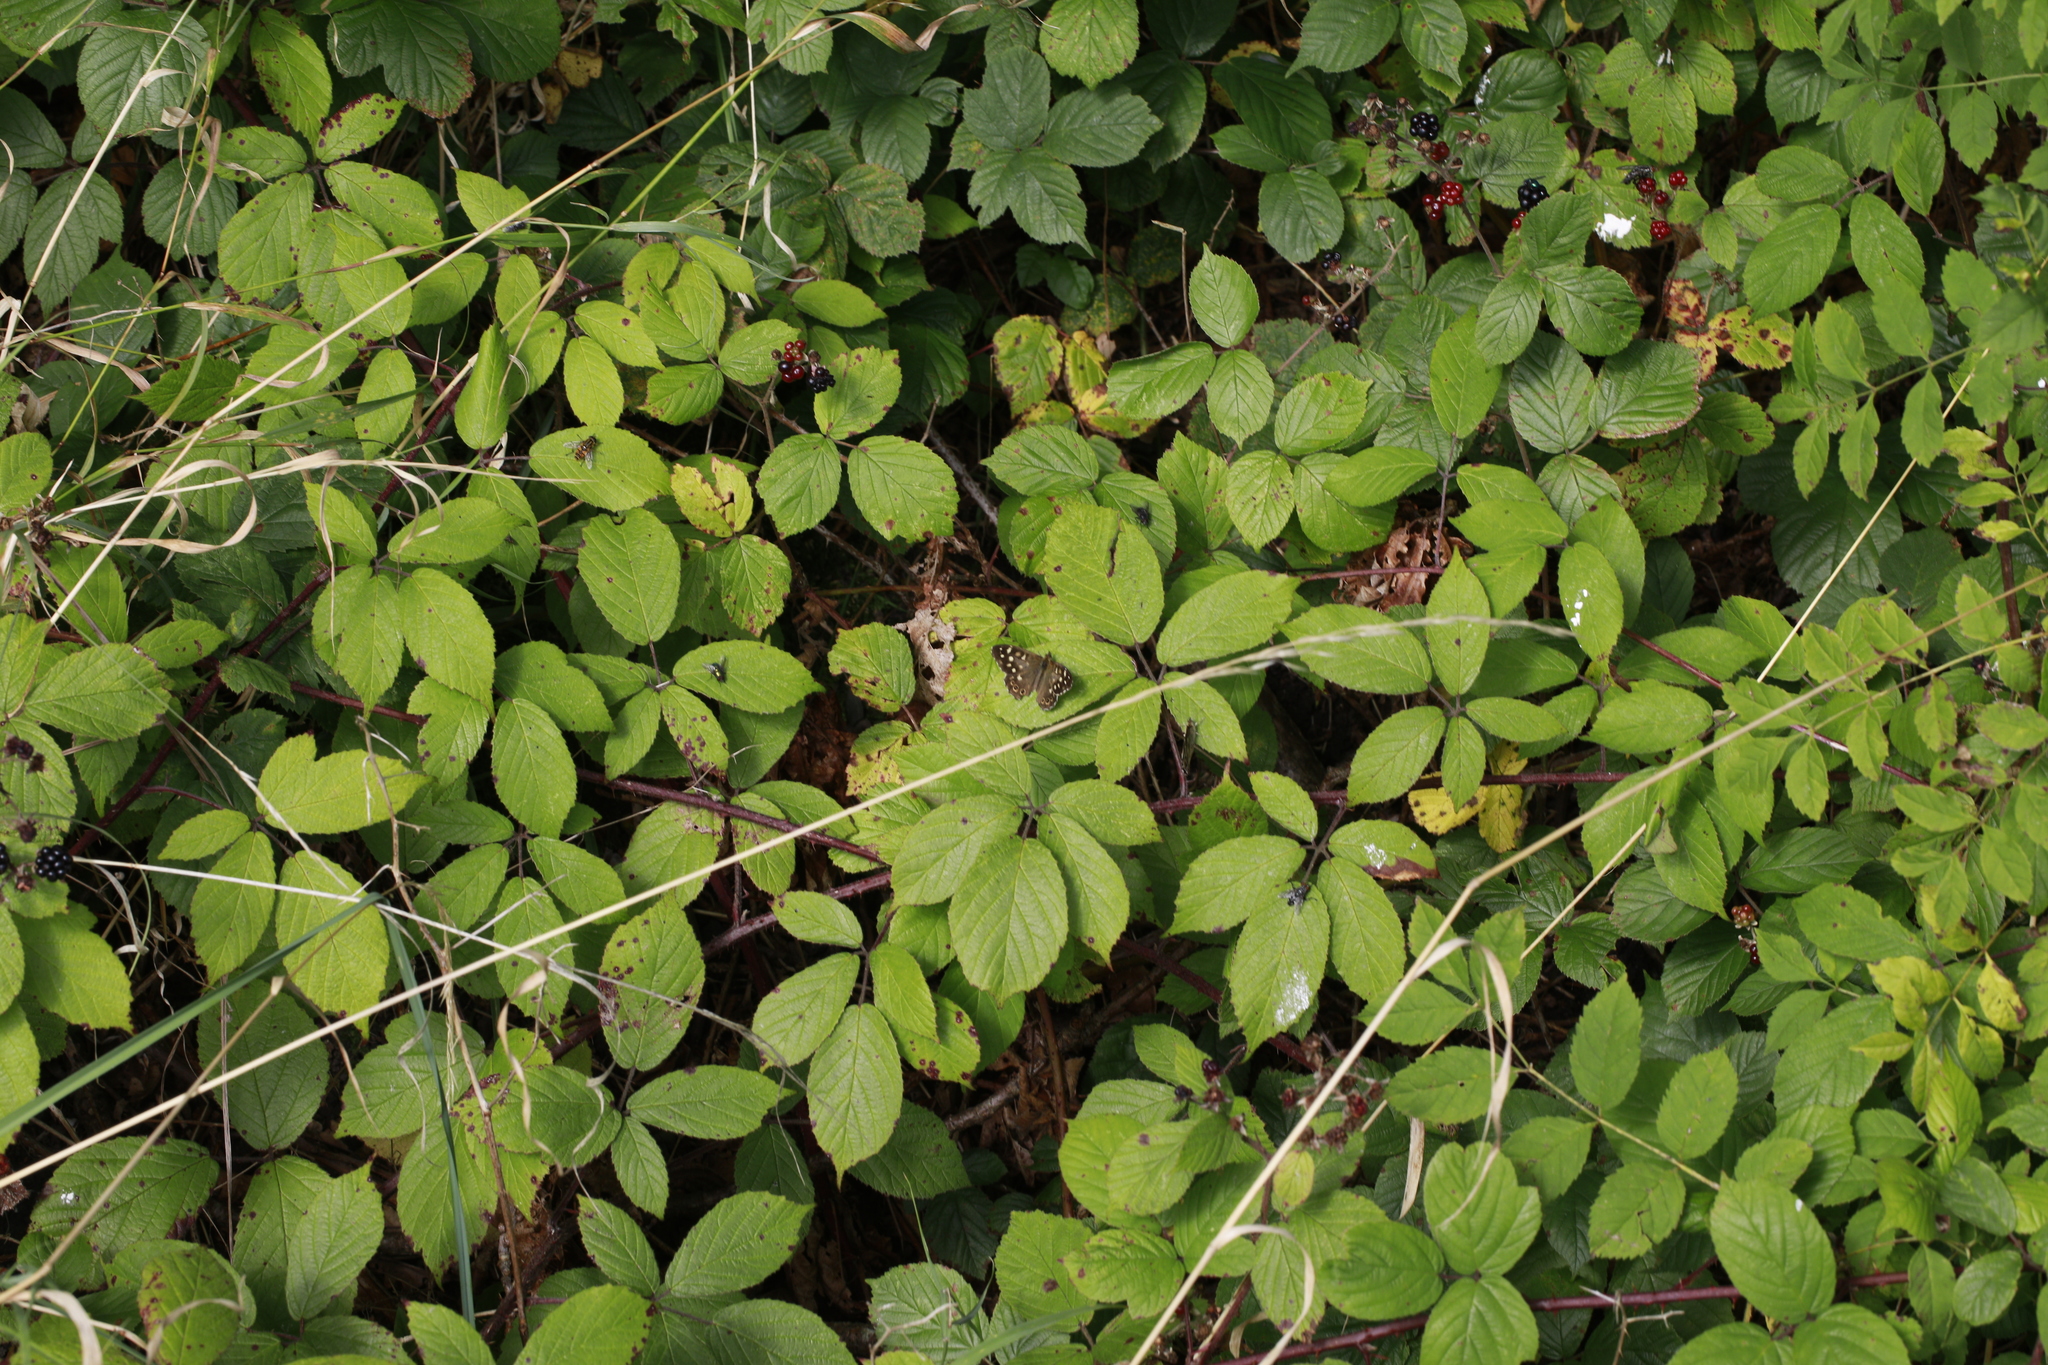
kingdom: Animalia
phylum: Arthropoda
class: Insecta
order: Lepidoptera
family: Nymphalidae
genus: Pararge
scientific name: Pararge aegeria
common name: Speckled wood
